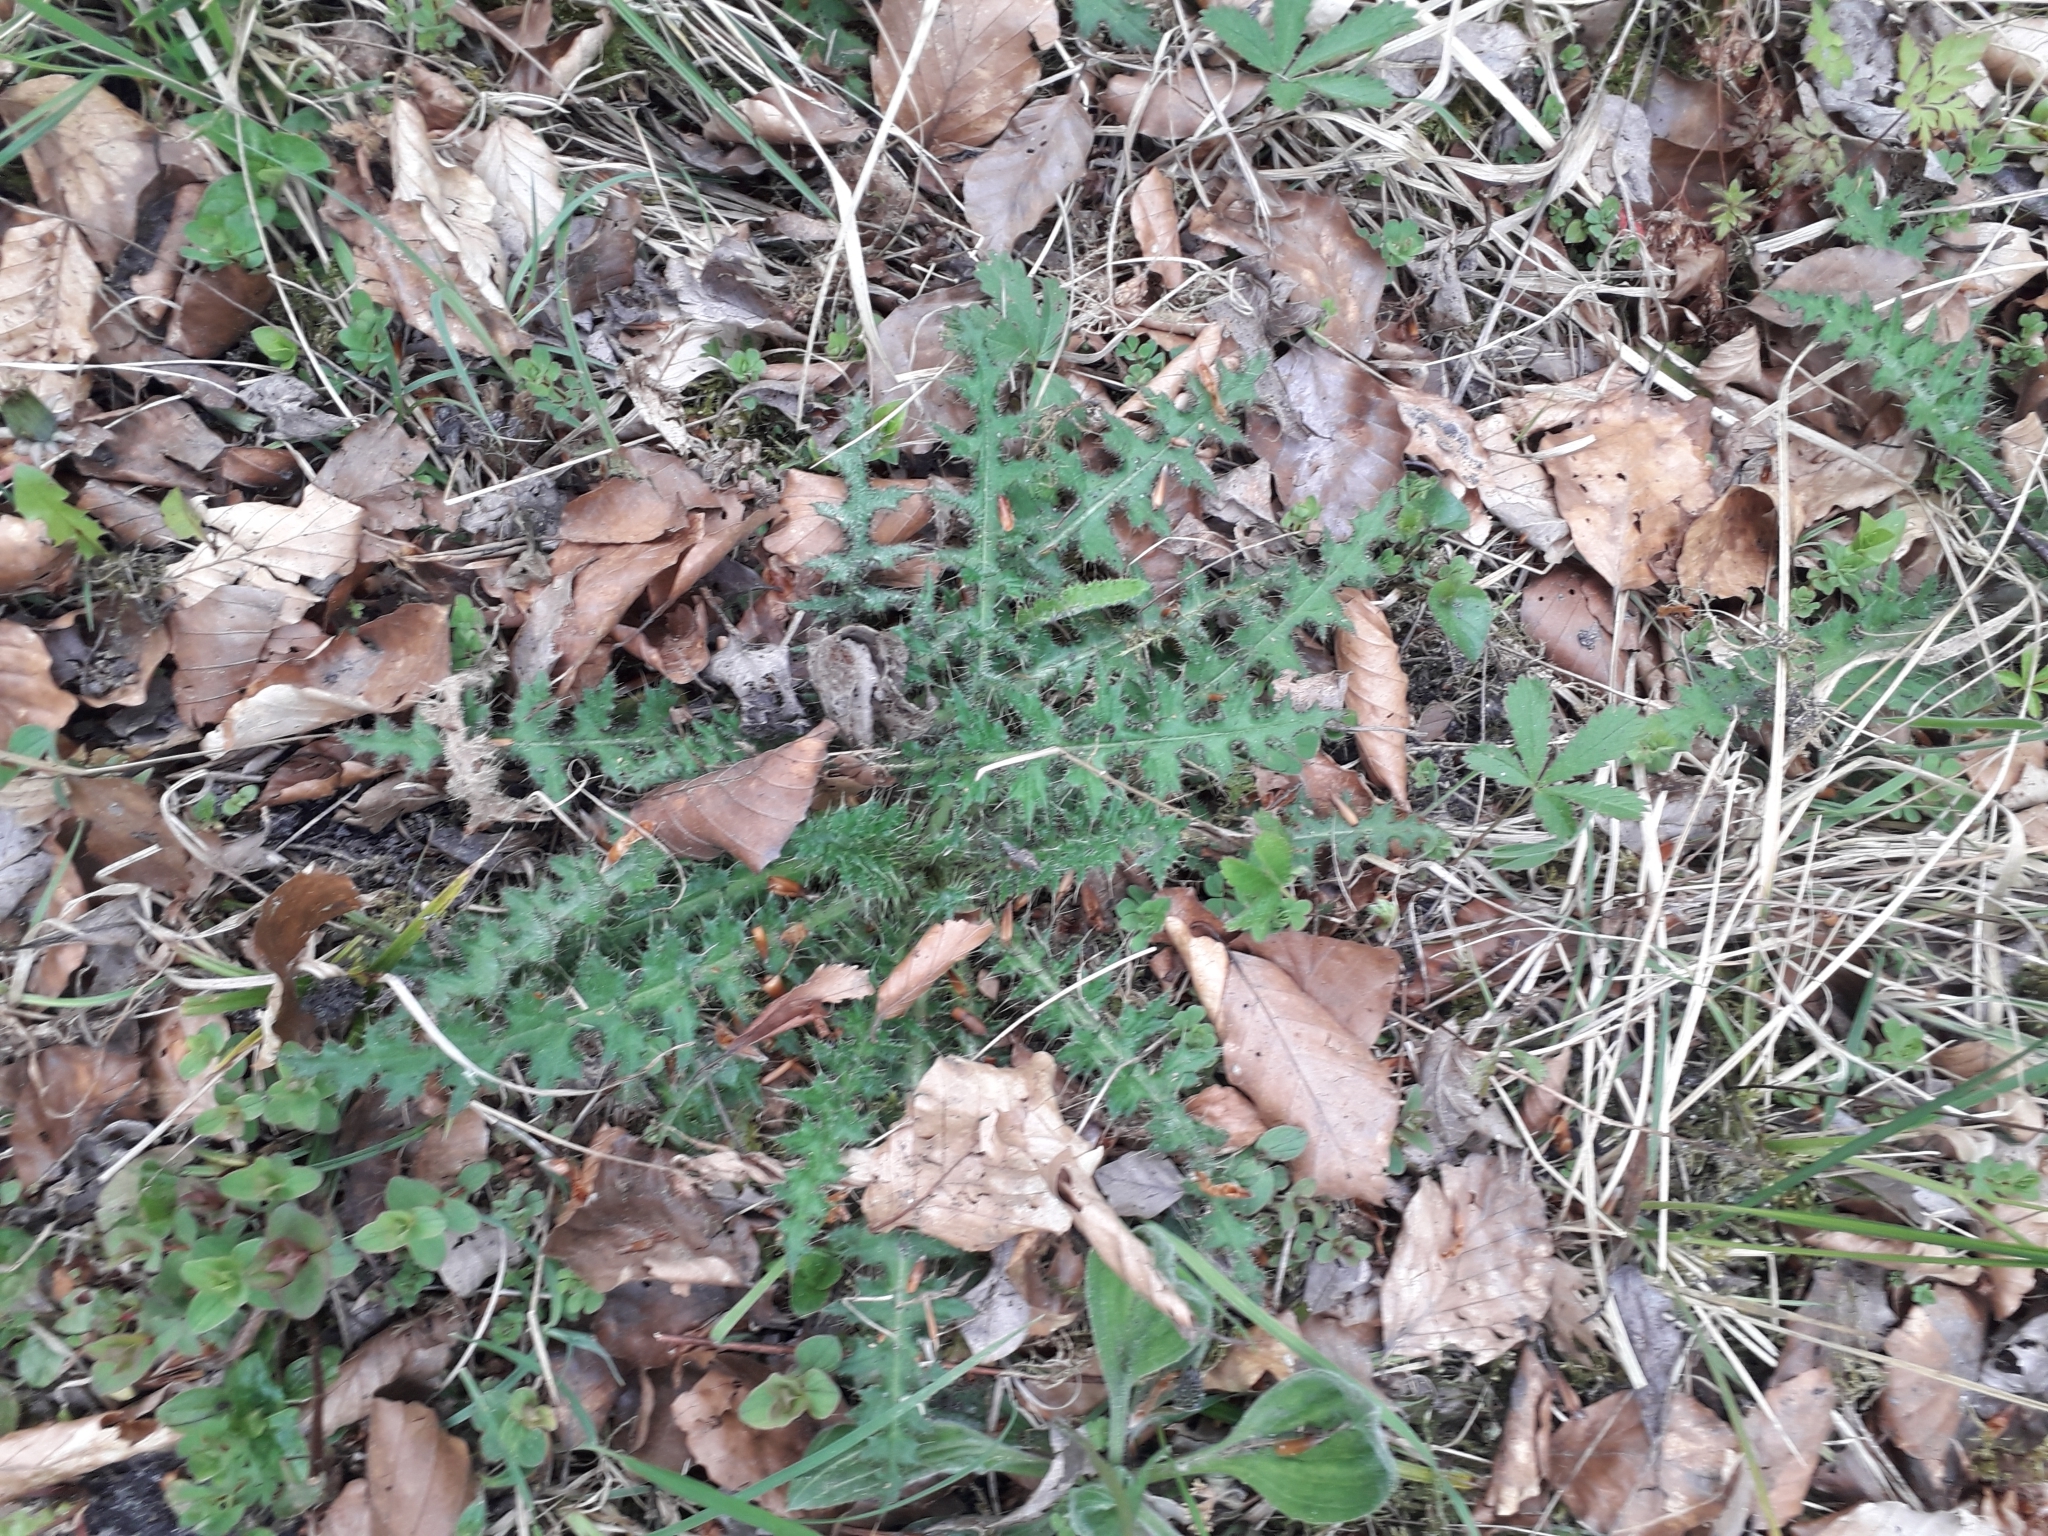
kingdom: Plantae
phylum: Tracheophyta
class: Magnoliopsida
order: Asterales
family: Asteraceae
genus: Cirsium
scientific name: Cirsium palustre
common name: Marsh thistle
